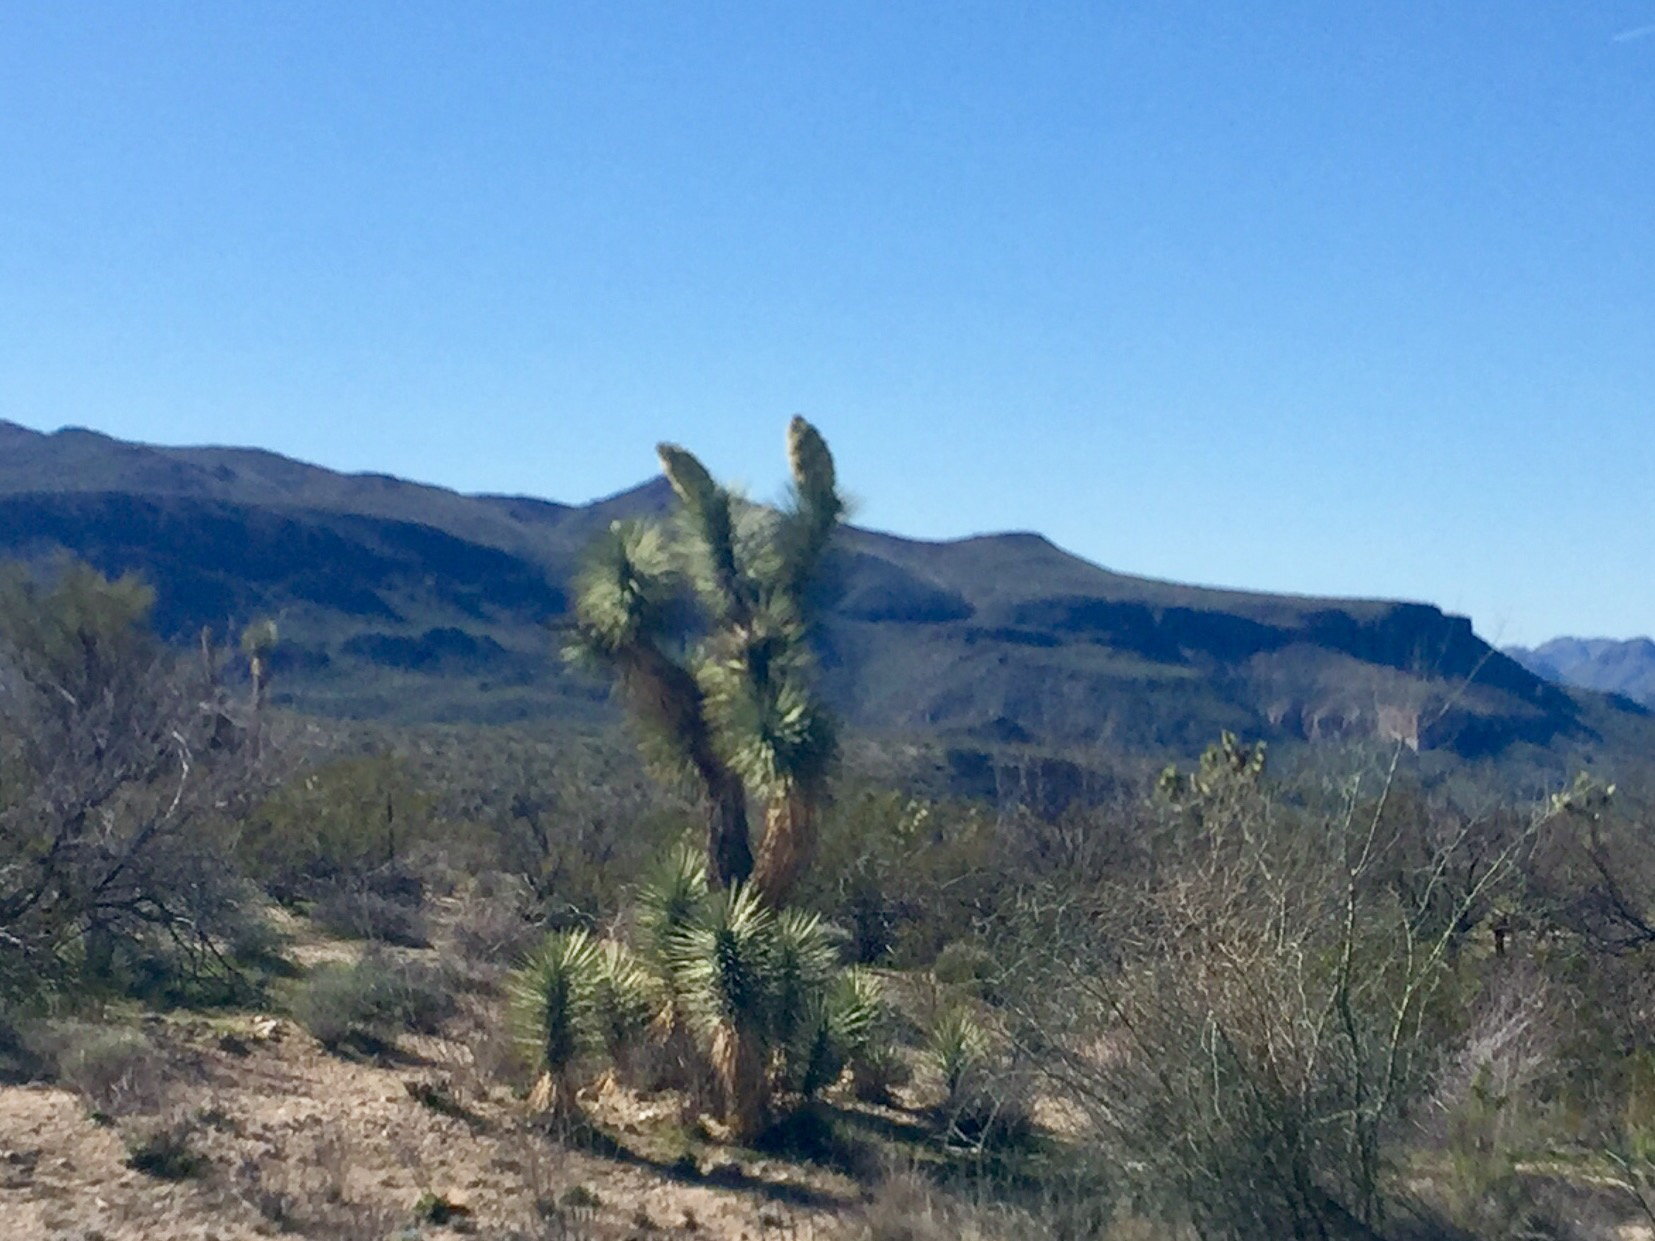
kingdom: Plantae
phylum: Tracheophyta
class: Liliopsida
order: Asparagales
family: Asparagaceae
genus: Yucca
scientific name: Yucca brevifolia
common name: Joshua tree
